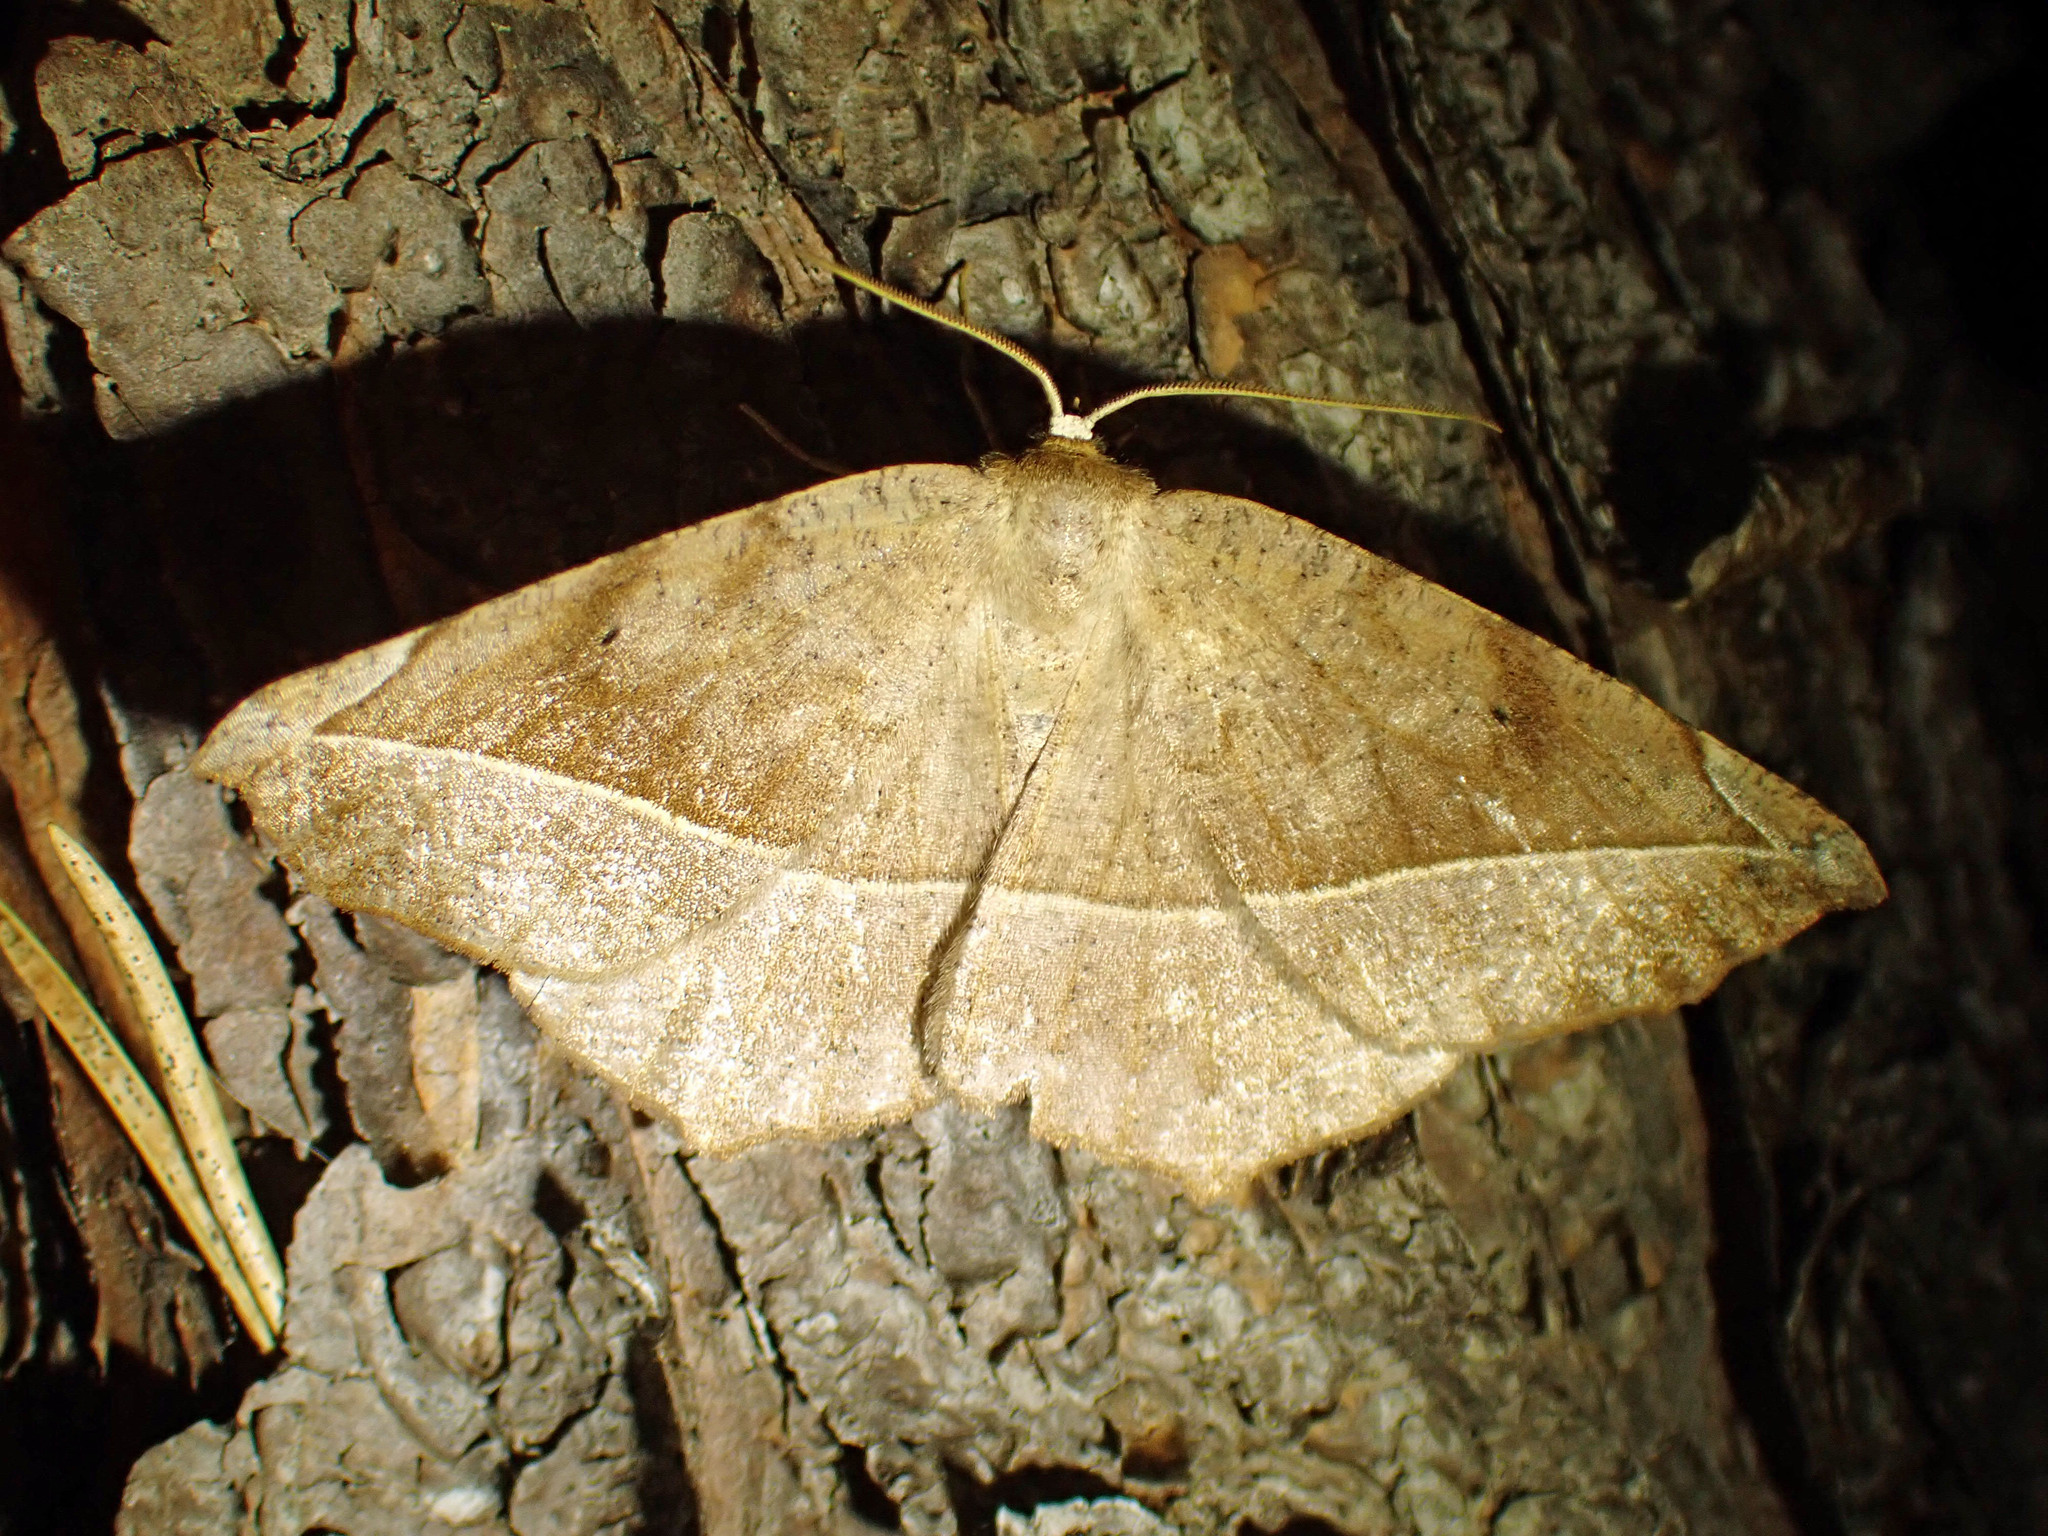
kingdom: Animalia
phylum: Arthropoda
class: Insecta
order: Lepidoptera
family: Geometridae
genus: Eutrapela
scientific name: Eutrapela clemataria
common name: Curved-toothed geometer
